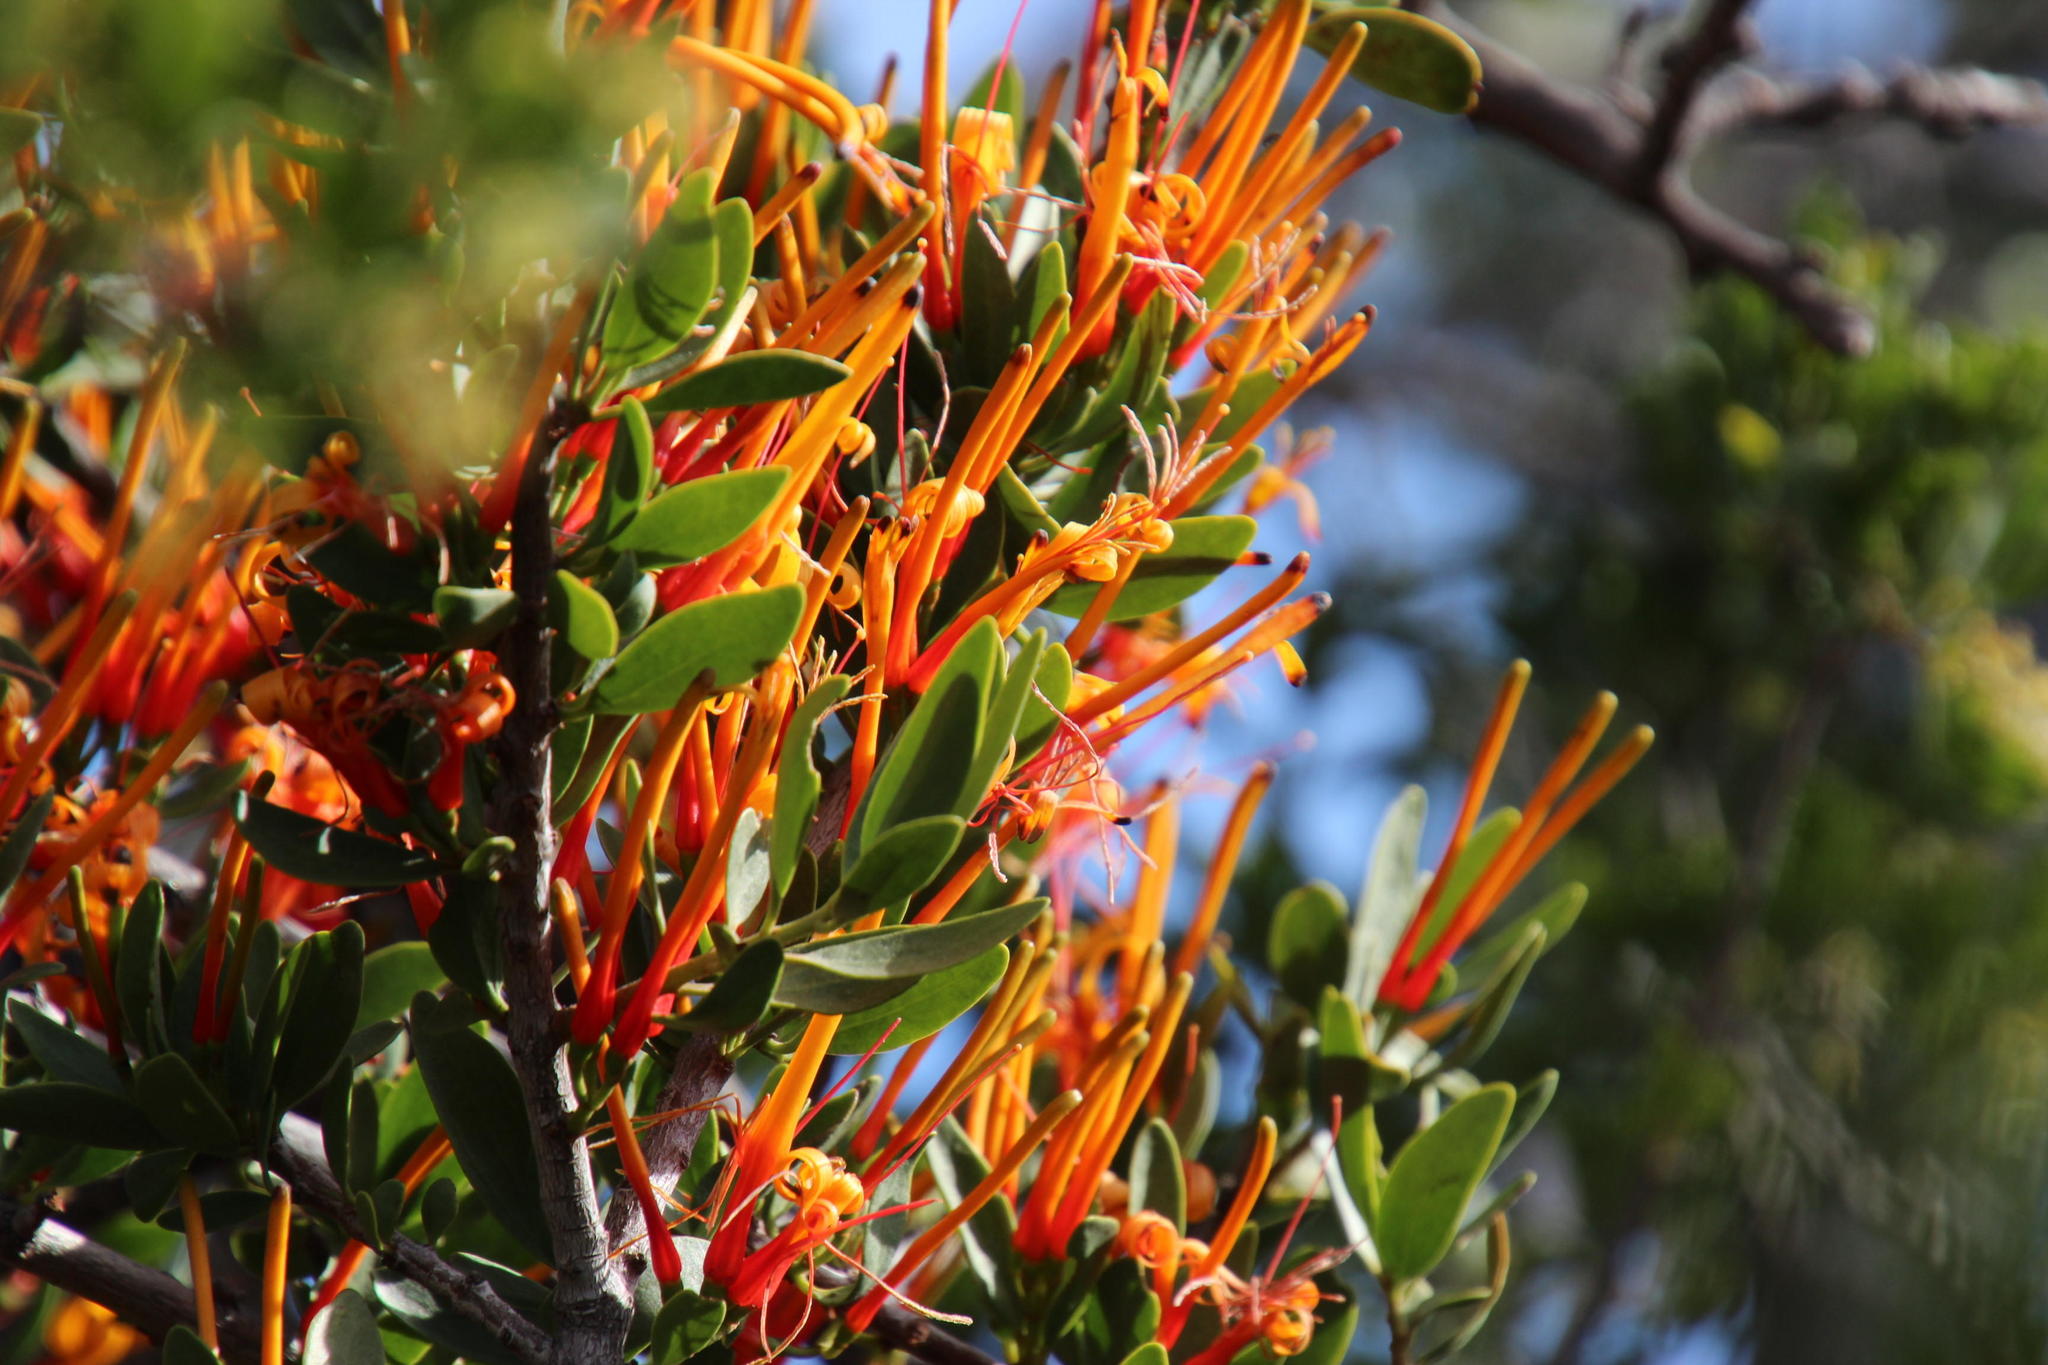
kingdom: Plantae
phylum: Tracheophyta
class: Magnoliopsida
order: Santalales
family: Loranthaceae
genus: Moquiniella
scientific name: Moquiniella rubra
